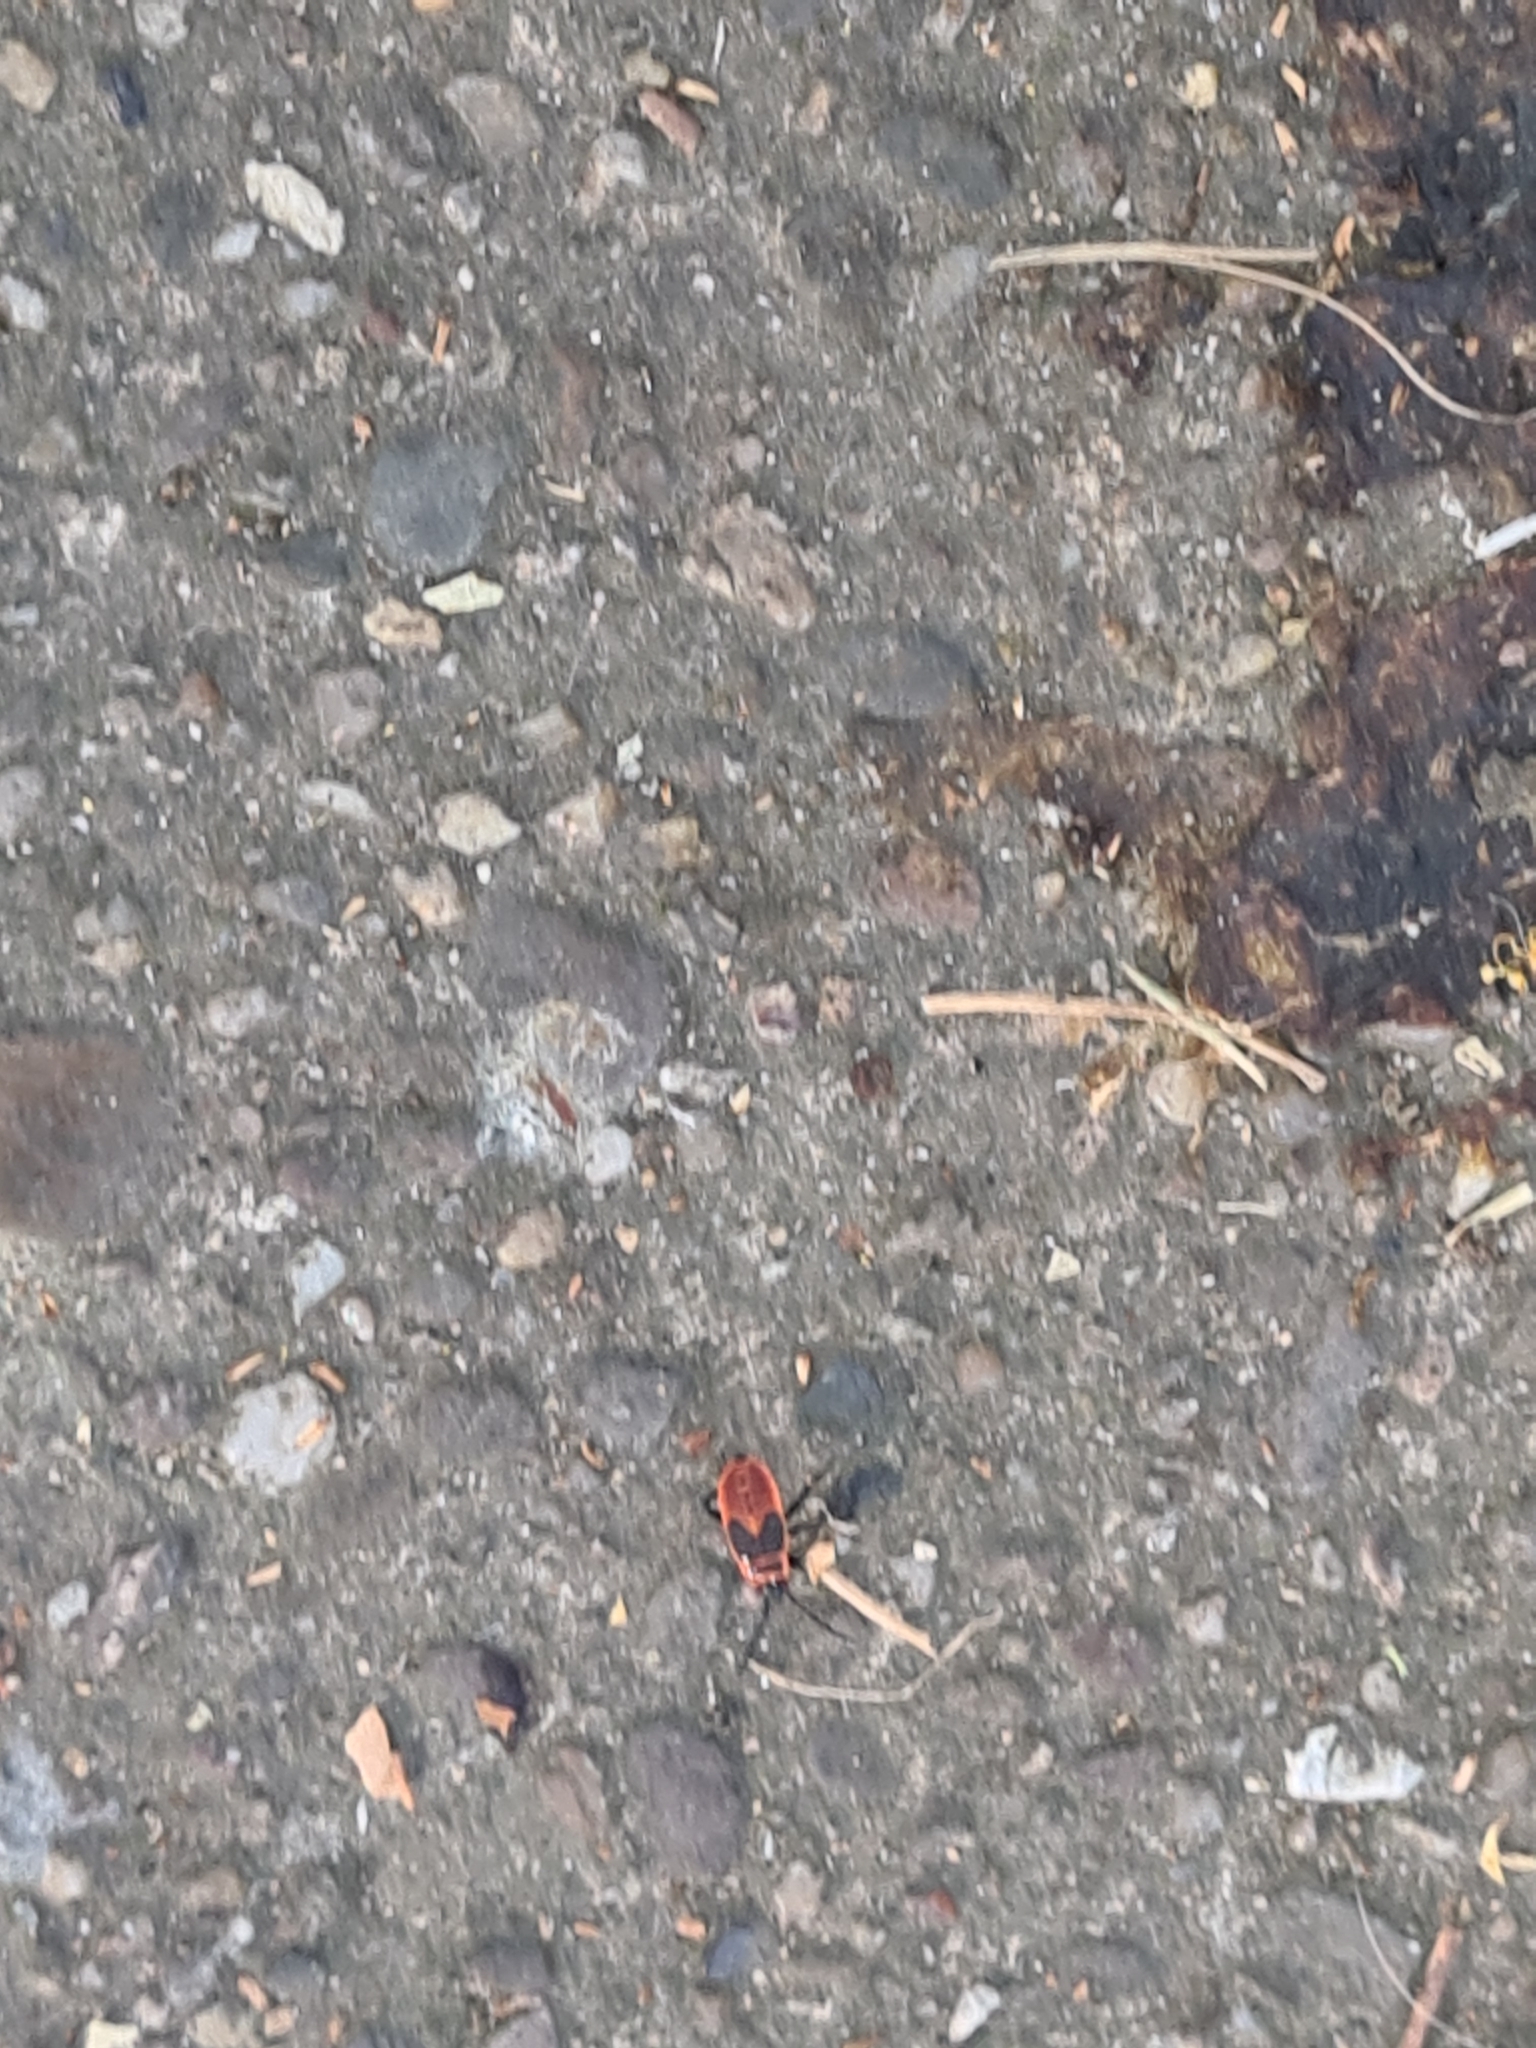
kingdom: Animalia
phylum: Arthropoda
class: Insecta
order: Hemiptera
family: Pyrrhocoridae
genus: Pyrrhocoris
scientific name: Pyrrhocoris apterus
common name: Firebug
